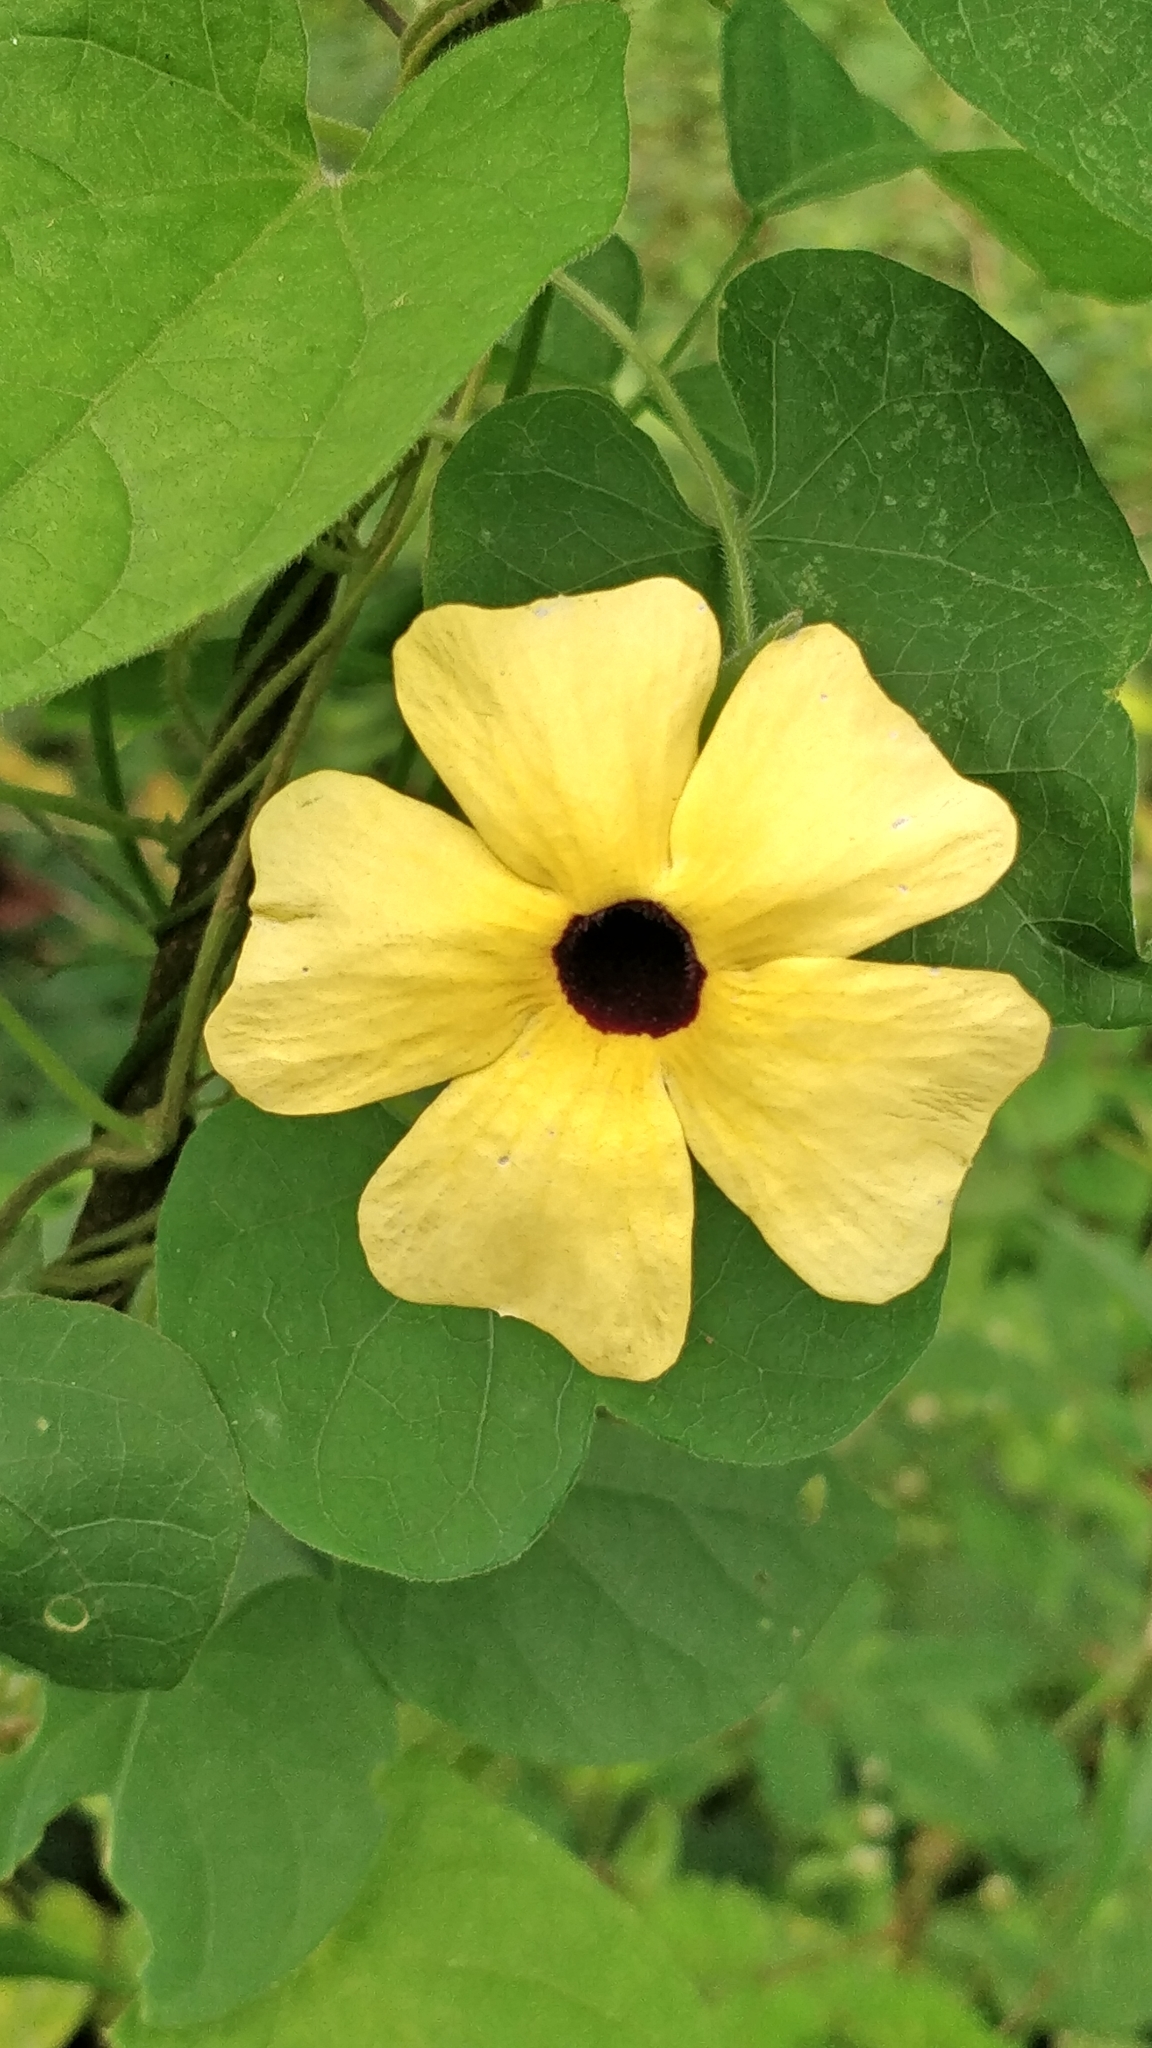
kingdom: Plantae
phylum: Tracheophyta
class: Magnoliopsida
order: Lamiales
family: Acanthaceae
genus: Thunbergia
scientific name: Thunbergia alata
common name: Blackeyed susan vine
